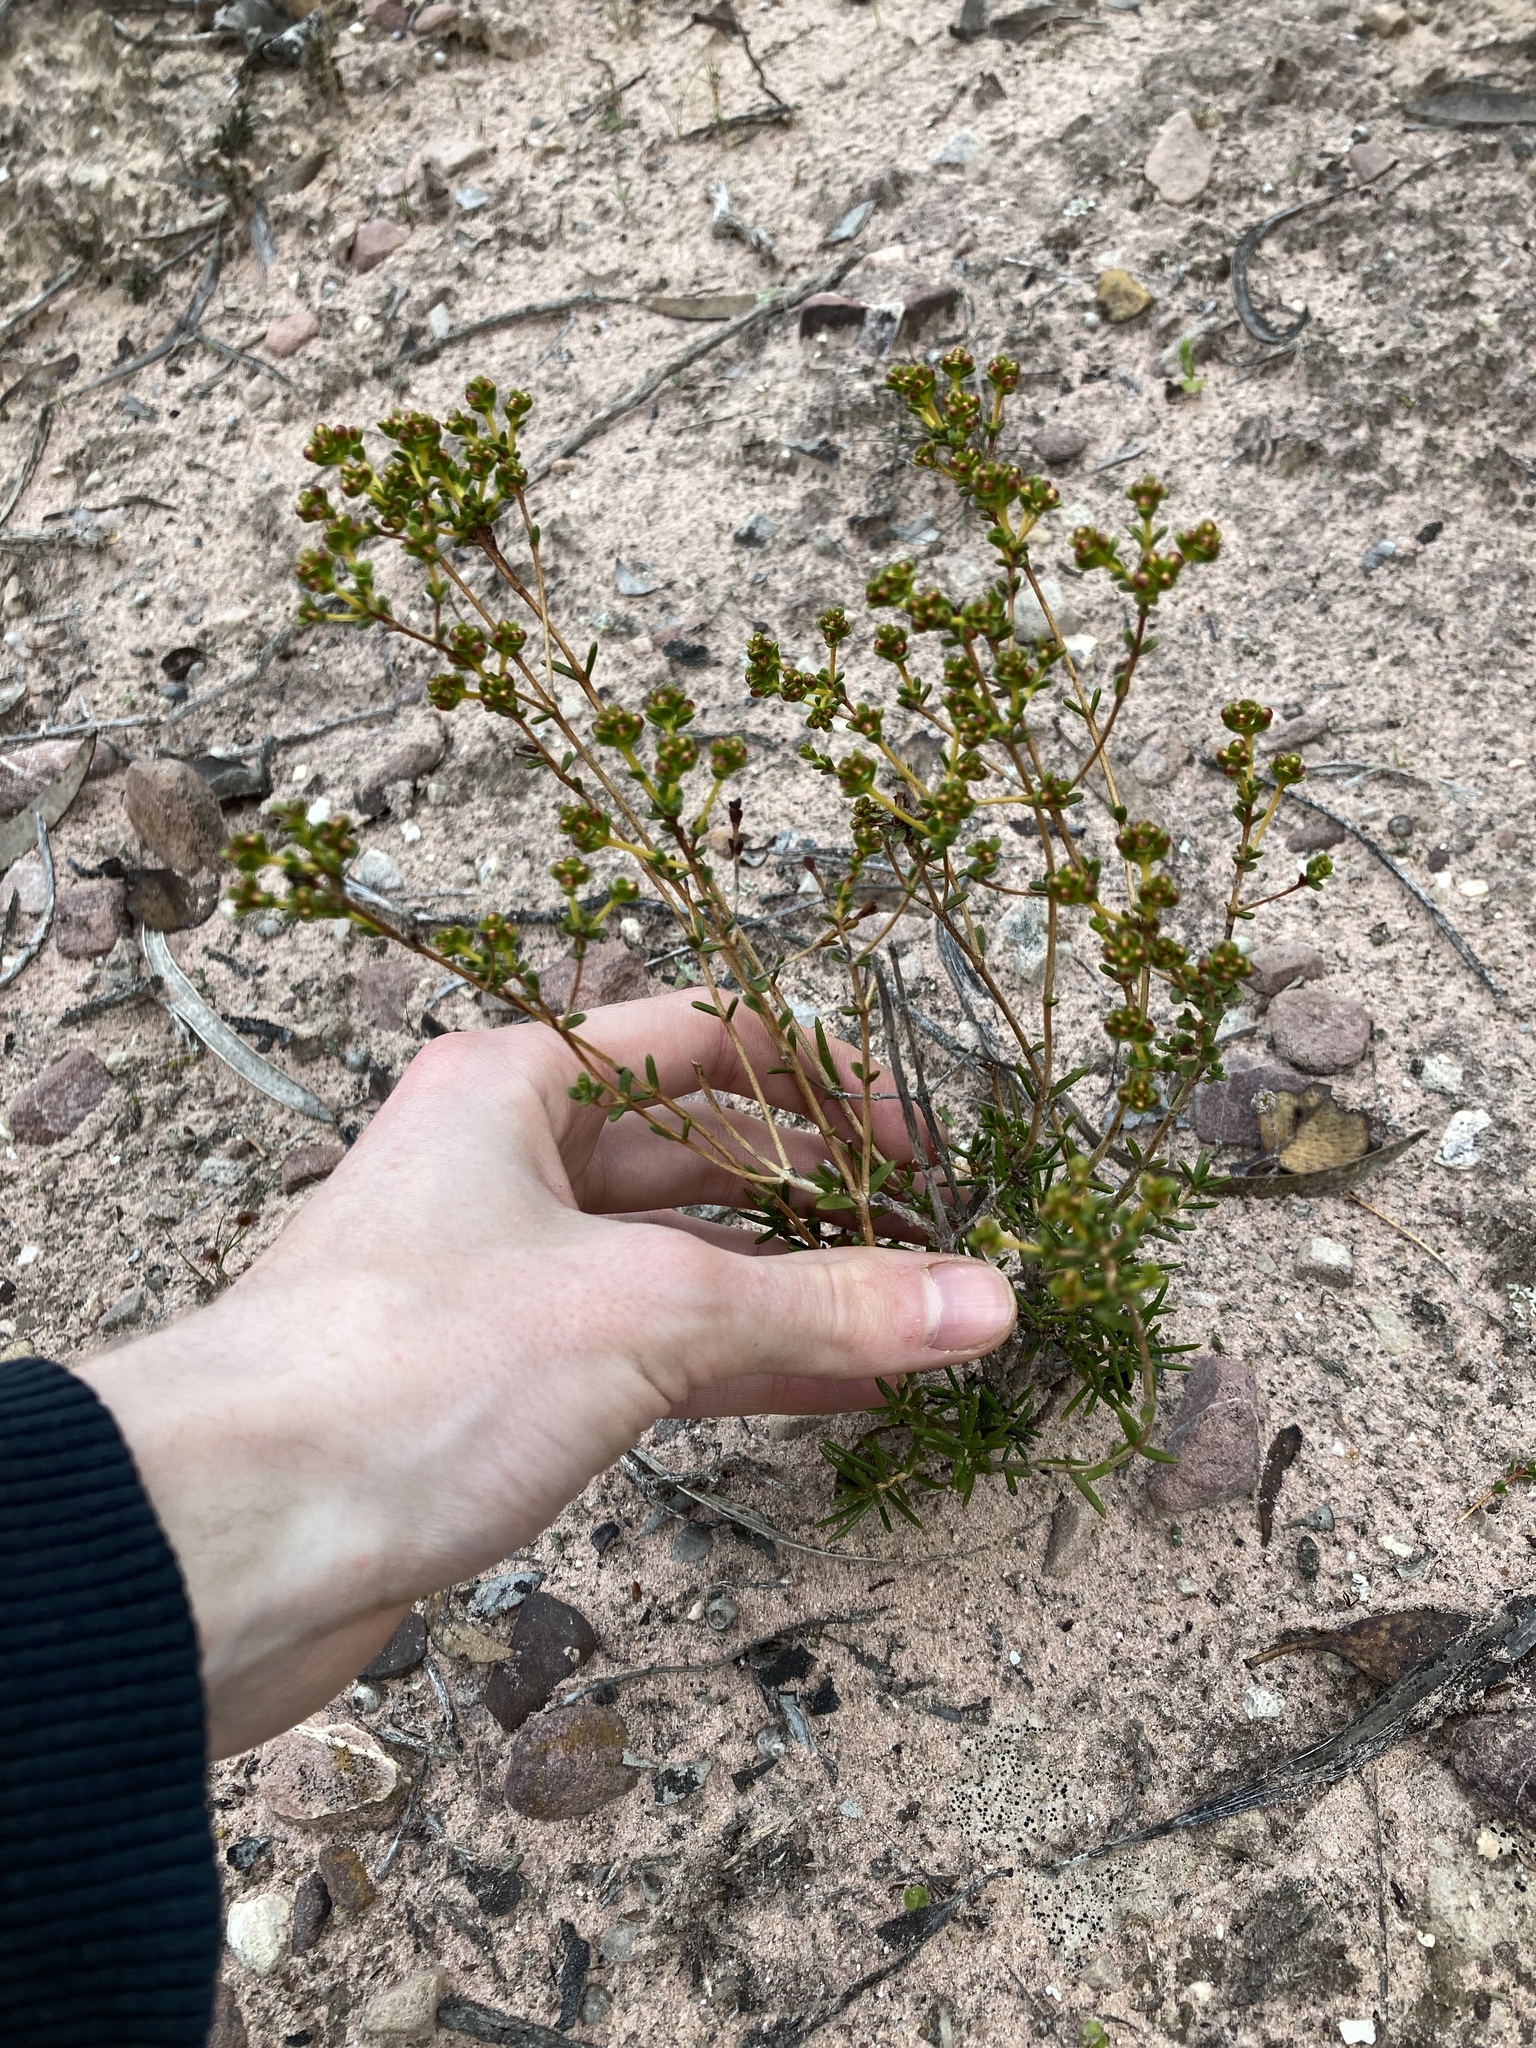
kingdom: Plantae
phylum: Tracheophyta
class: Magnoliopsida
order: Myrtales
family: Myrtaceae
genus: Verticordia
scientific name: Verticordia subulata
